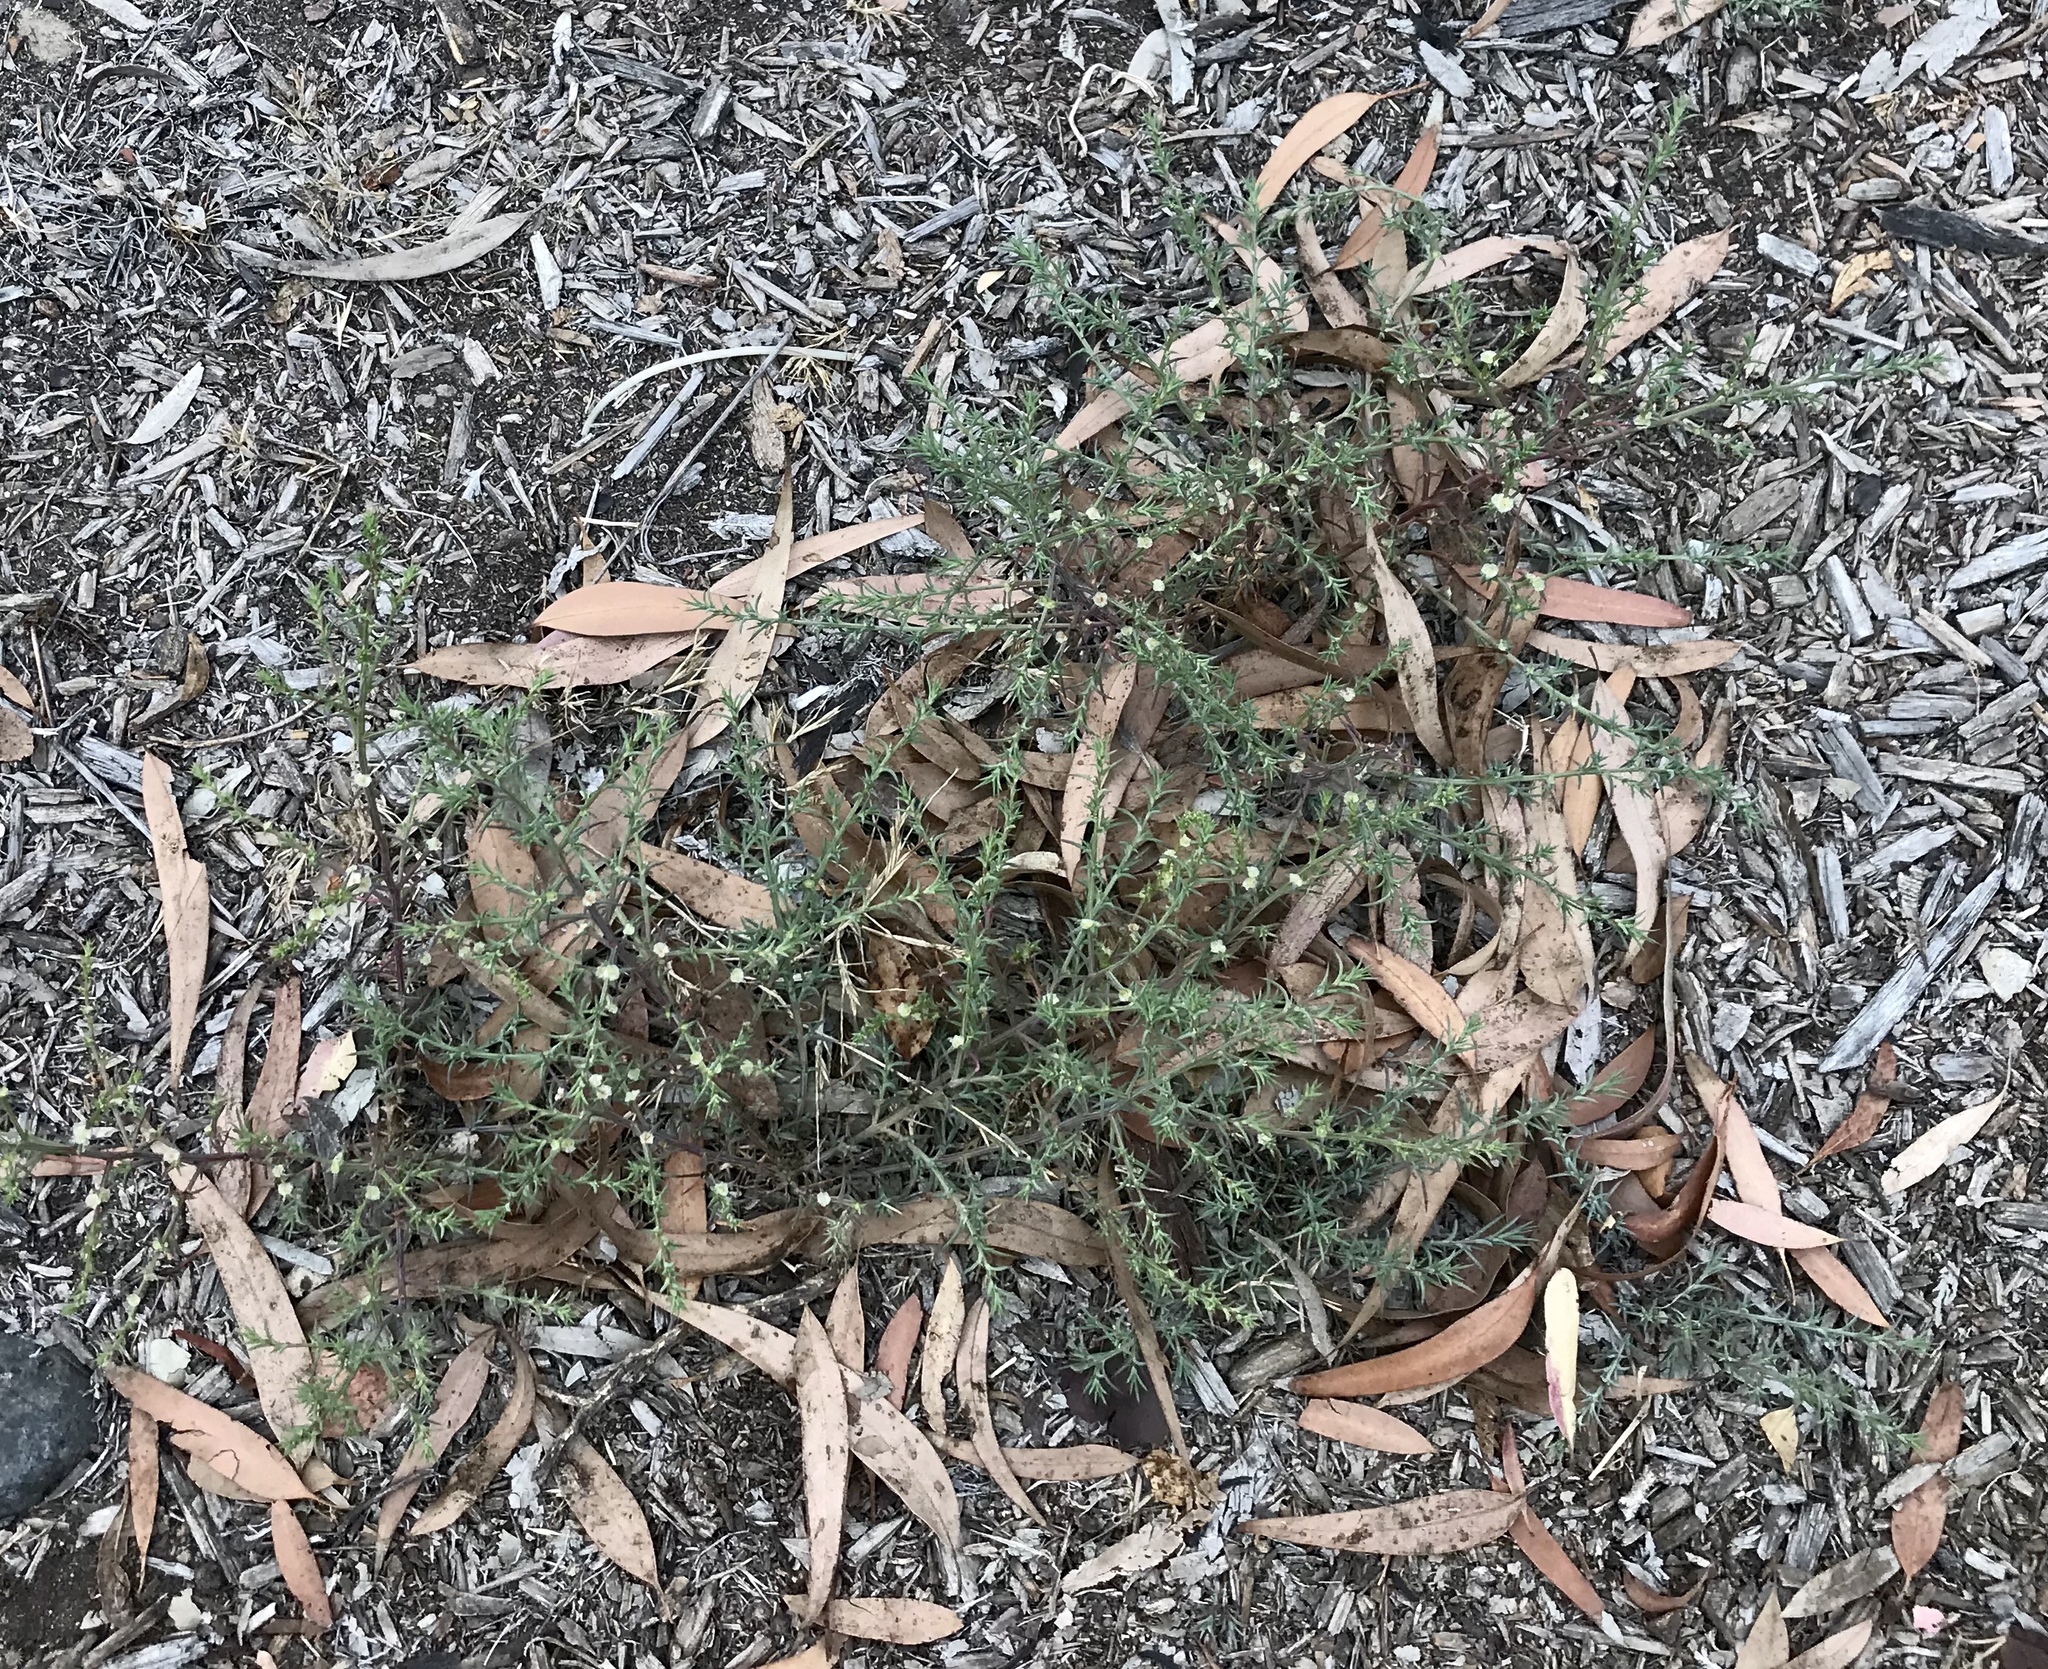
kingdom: Plantae
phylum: Tracheophyta
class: Magnoliopsida
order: Caryophyllales
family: Amaranthaceae
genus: Salsola
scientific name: Salsola australis
